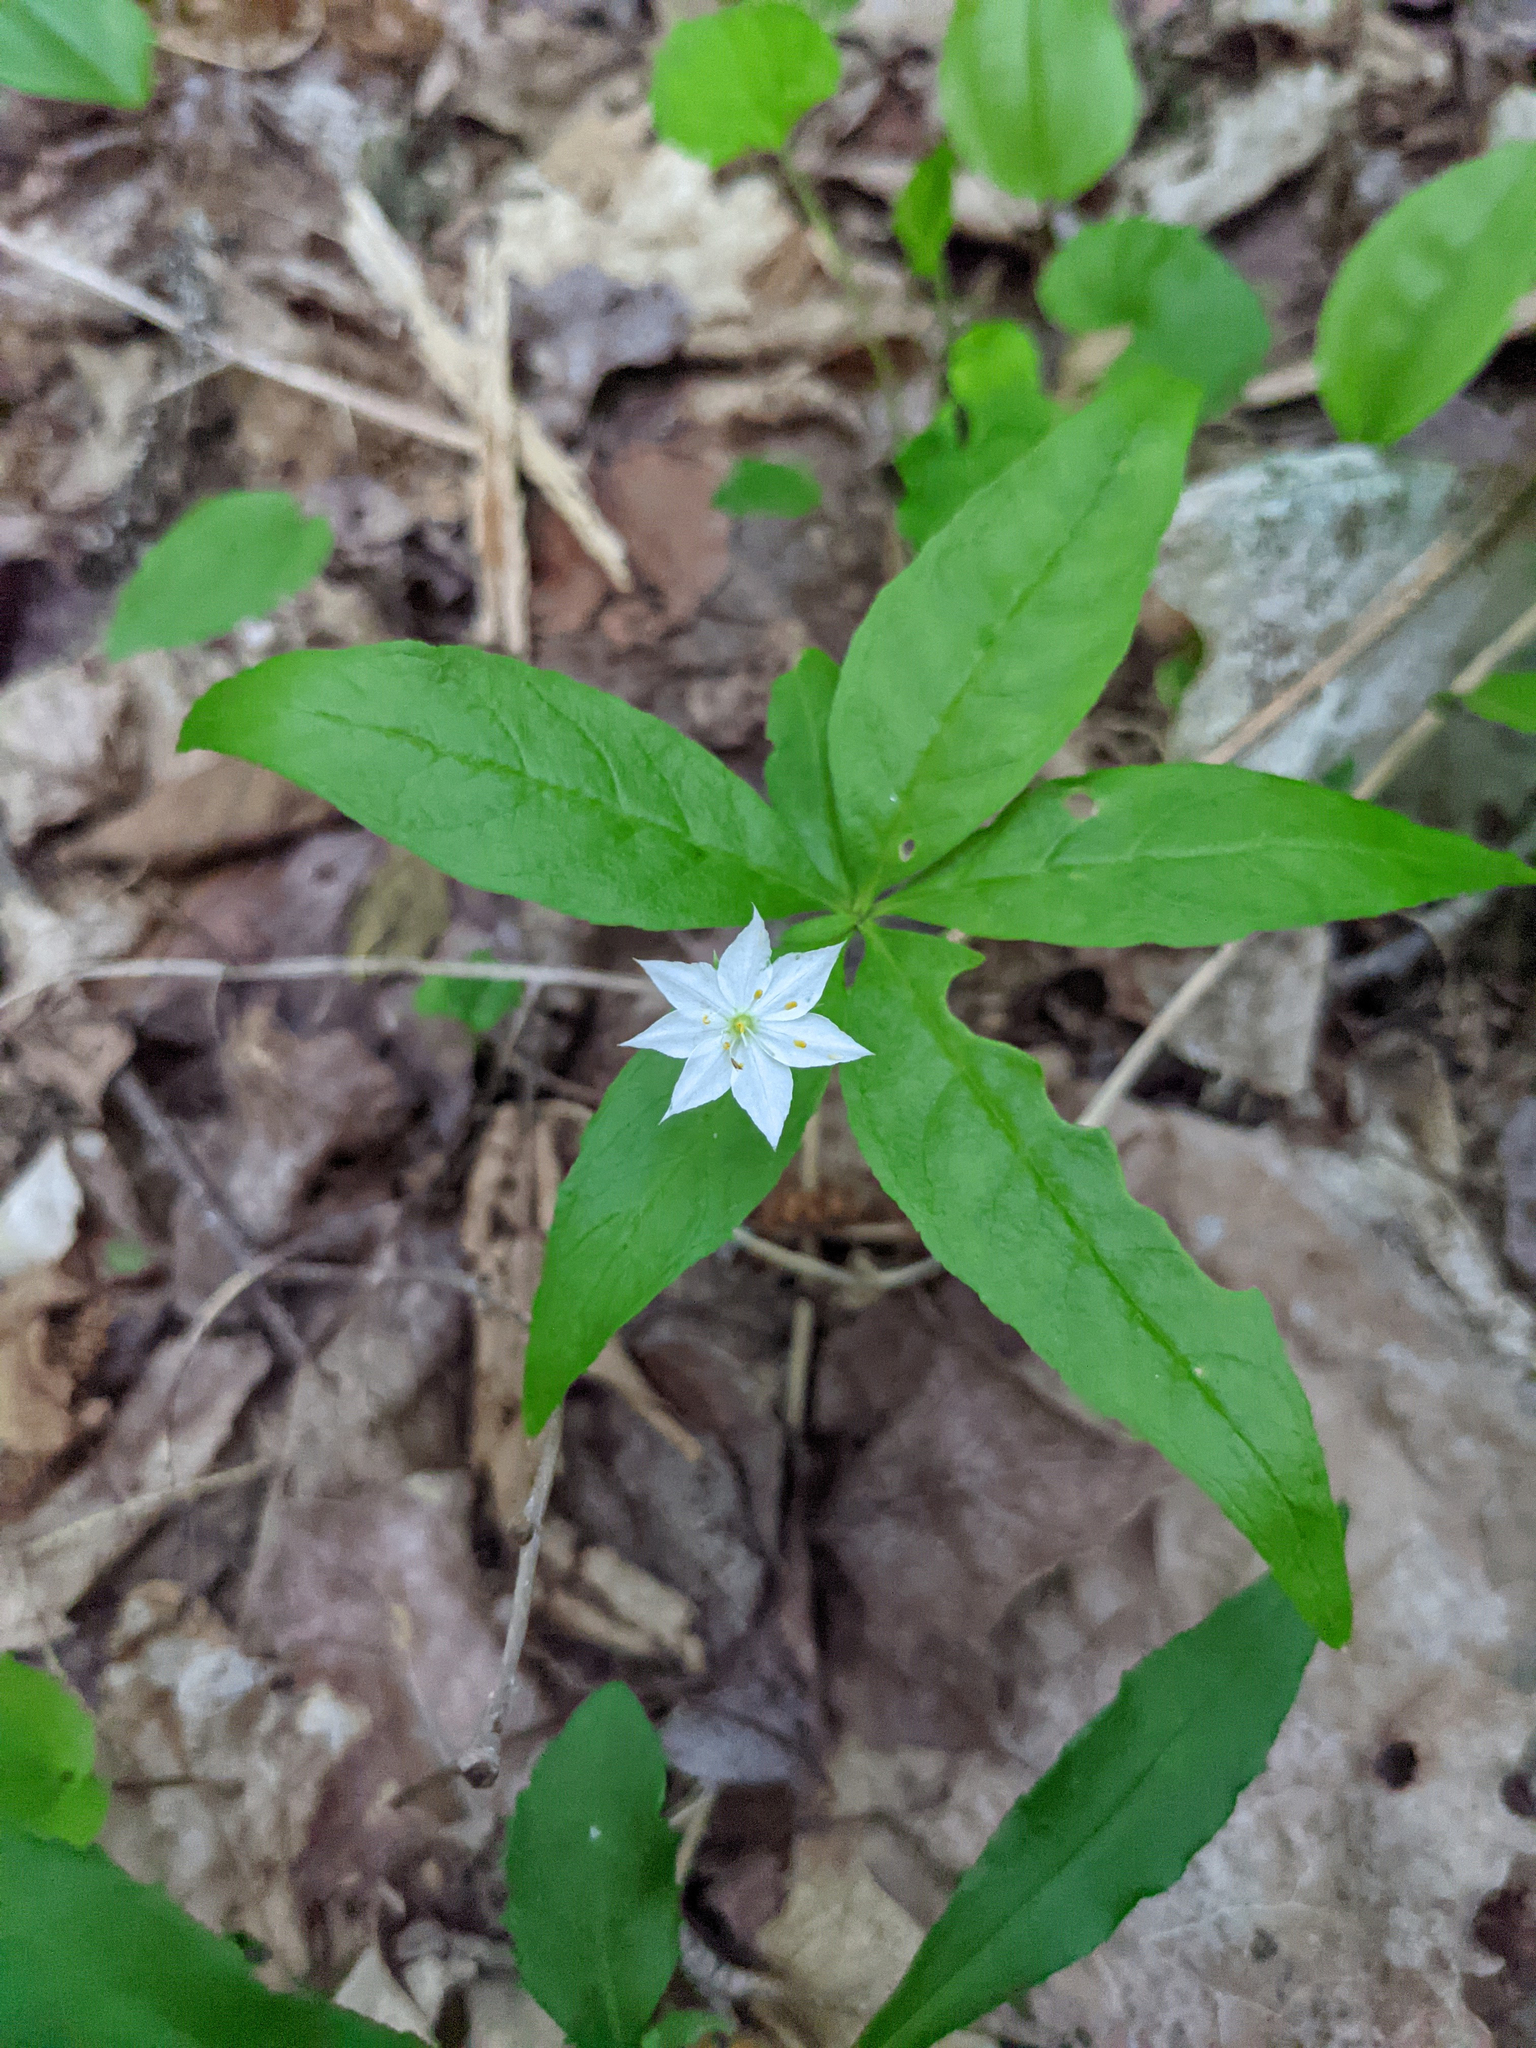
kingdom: Plantae
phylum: Tracheophyta
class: Magnoliopsida
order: Ericales
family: Primulaceae
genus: Lysimachia
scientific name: Lysimachia borealis
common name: American starflower
